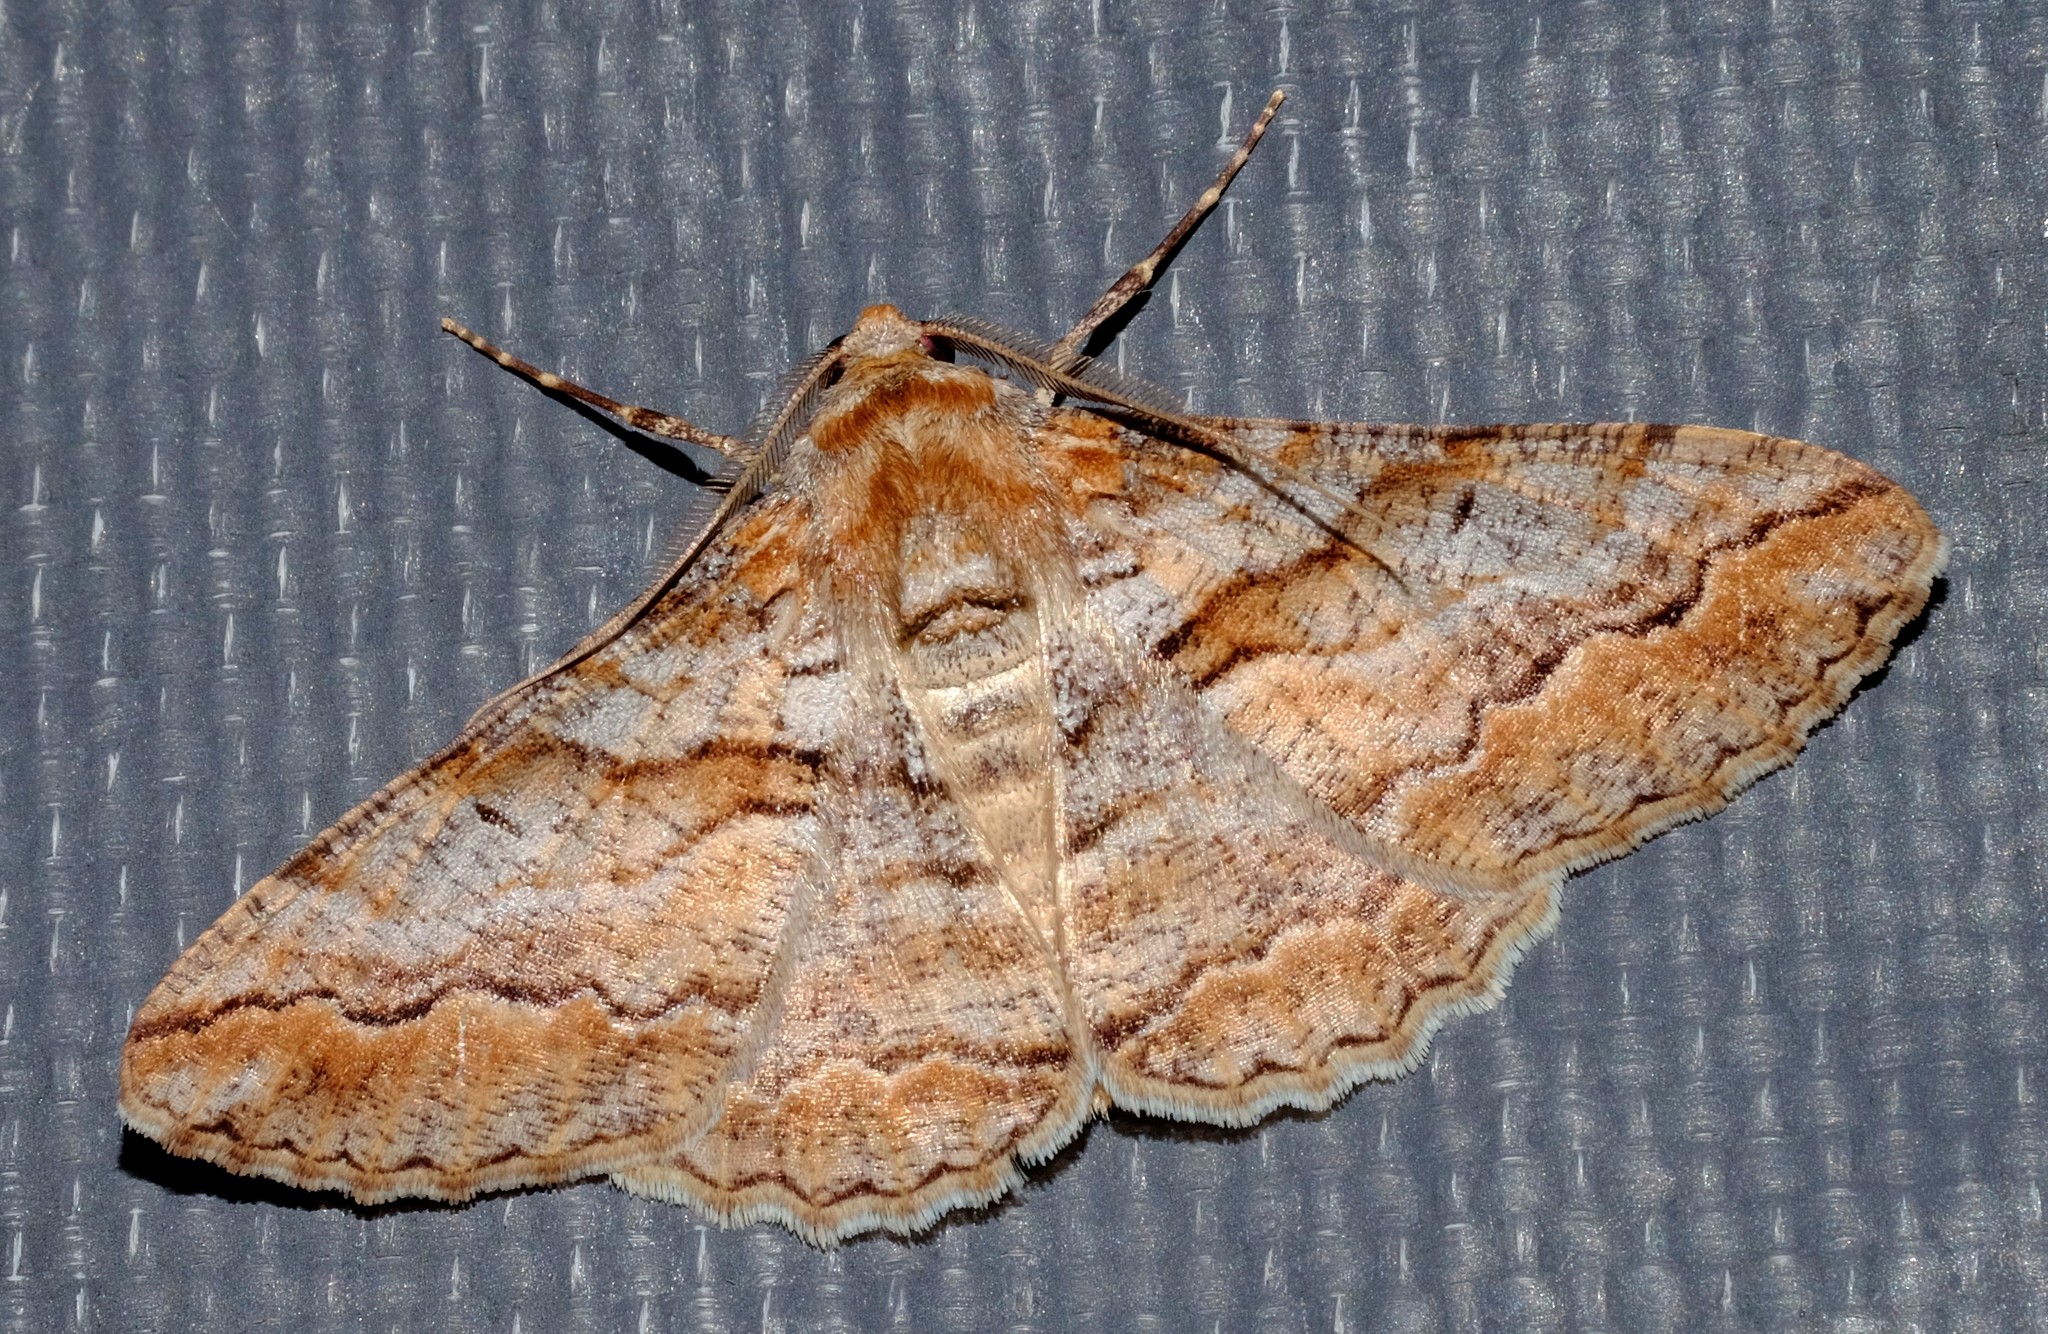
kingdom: Animalia
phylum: Arthropoda
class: Insecta
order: Lepidoptera
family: Geometridae
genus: Gastrinodes
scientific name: Gastrinodes bitaeniaria
